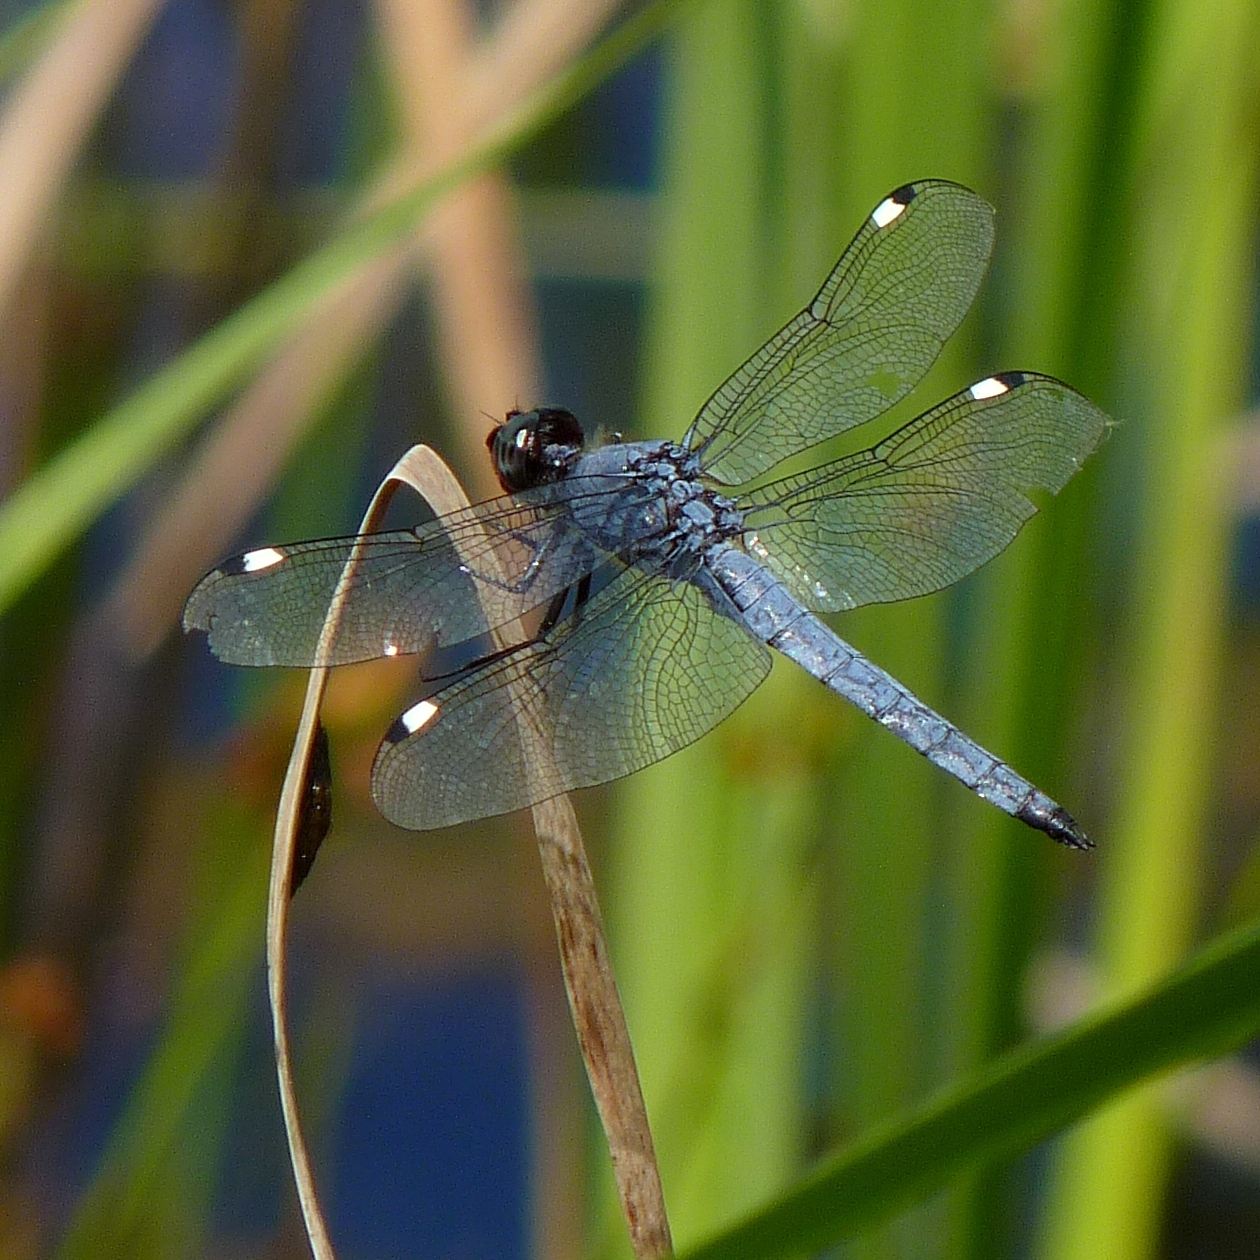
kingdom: Animalia
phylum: Arthropoda
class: Insecta
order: Odonata
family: Libellulidae
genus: Libellula
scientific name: Libellula cyanea
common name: Spangled skimmer
